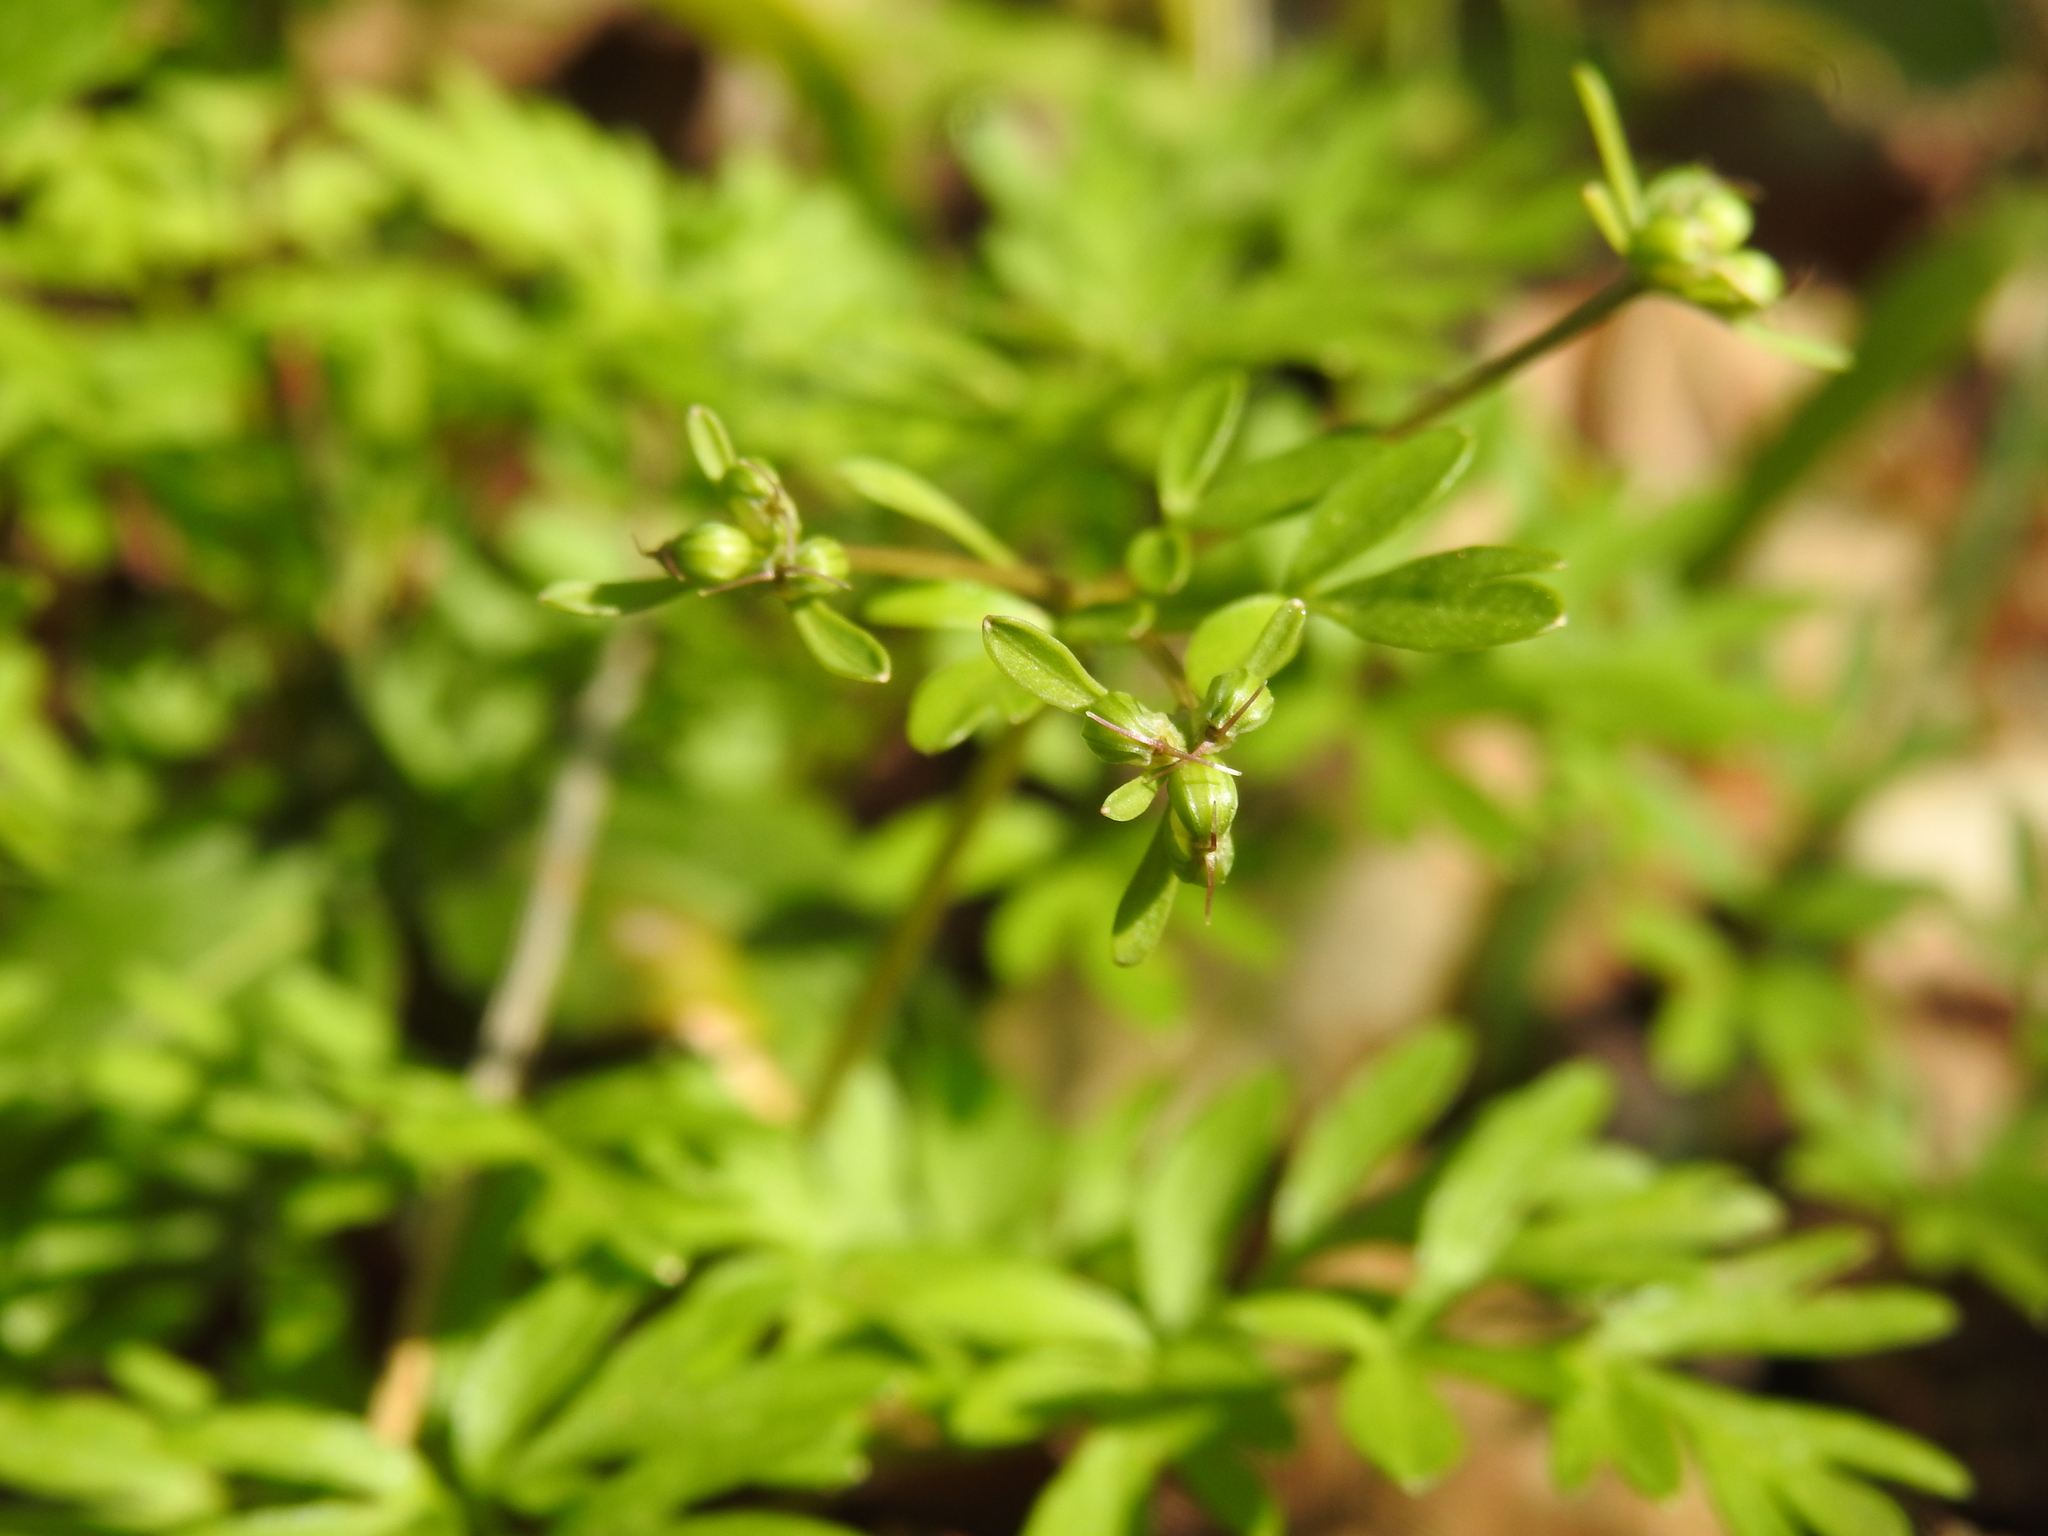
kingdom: Plantae
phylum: Tracheophyta
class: Magnoliopsida
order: Apiales
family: Apiaceae
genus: Erigenia
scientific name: Erigenia bulbosa
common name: Pepper-and-salt
